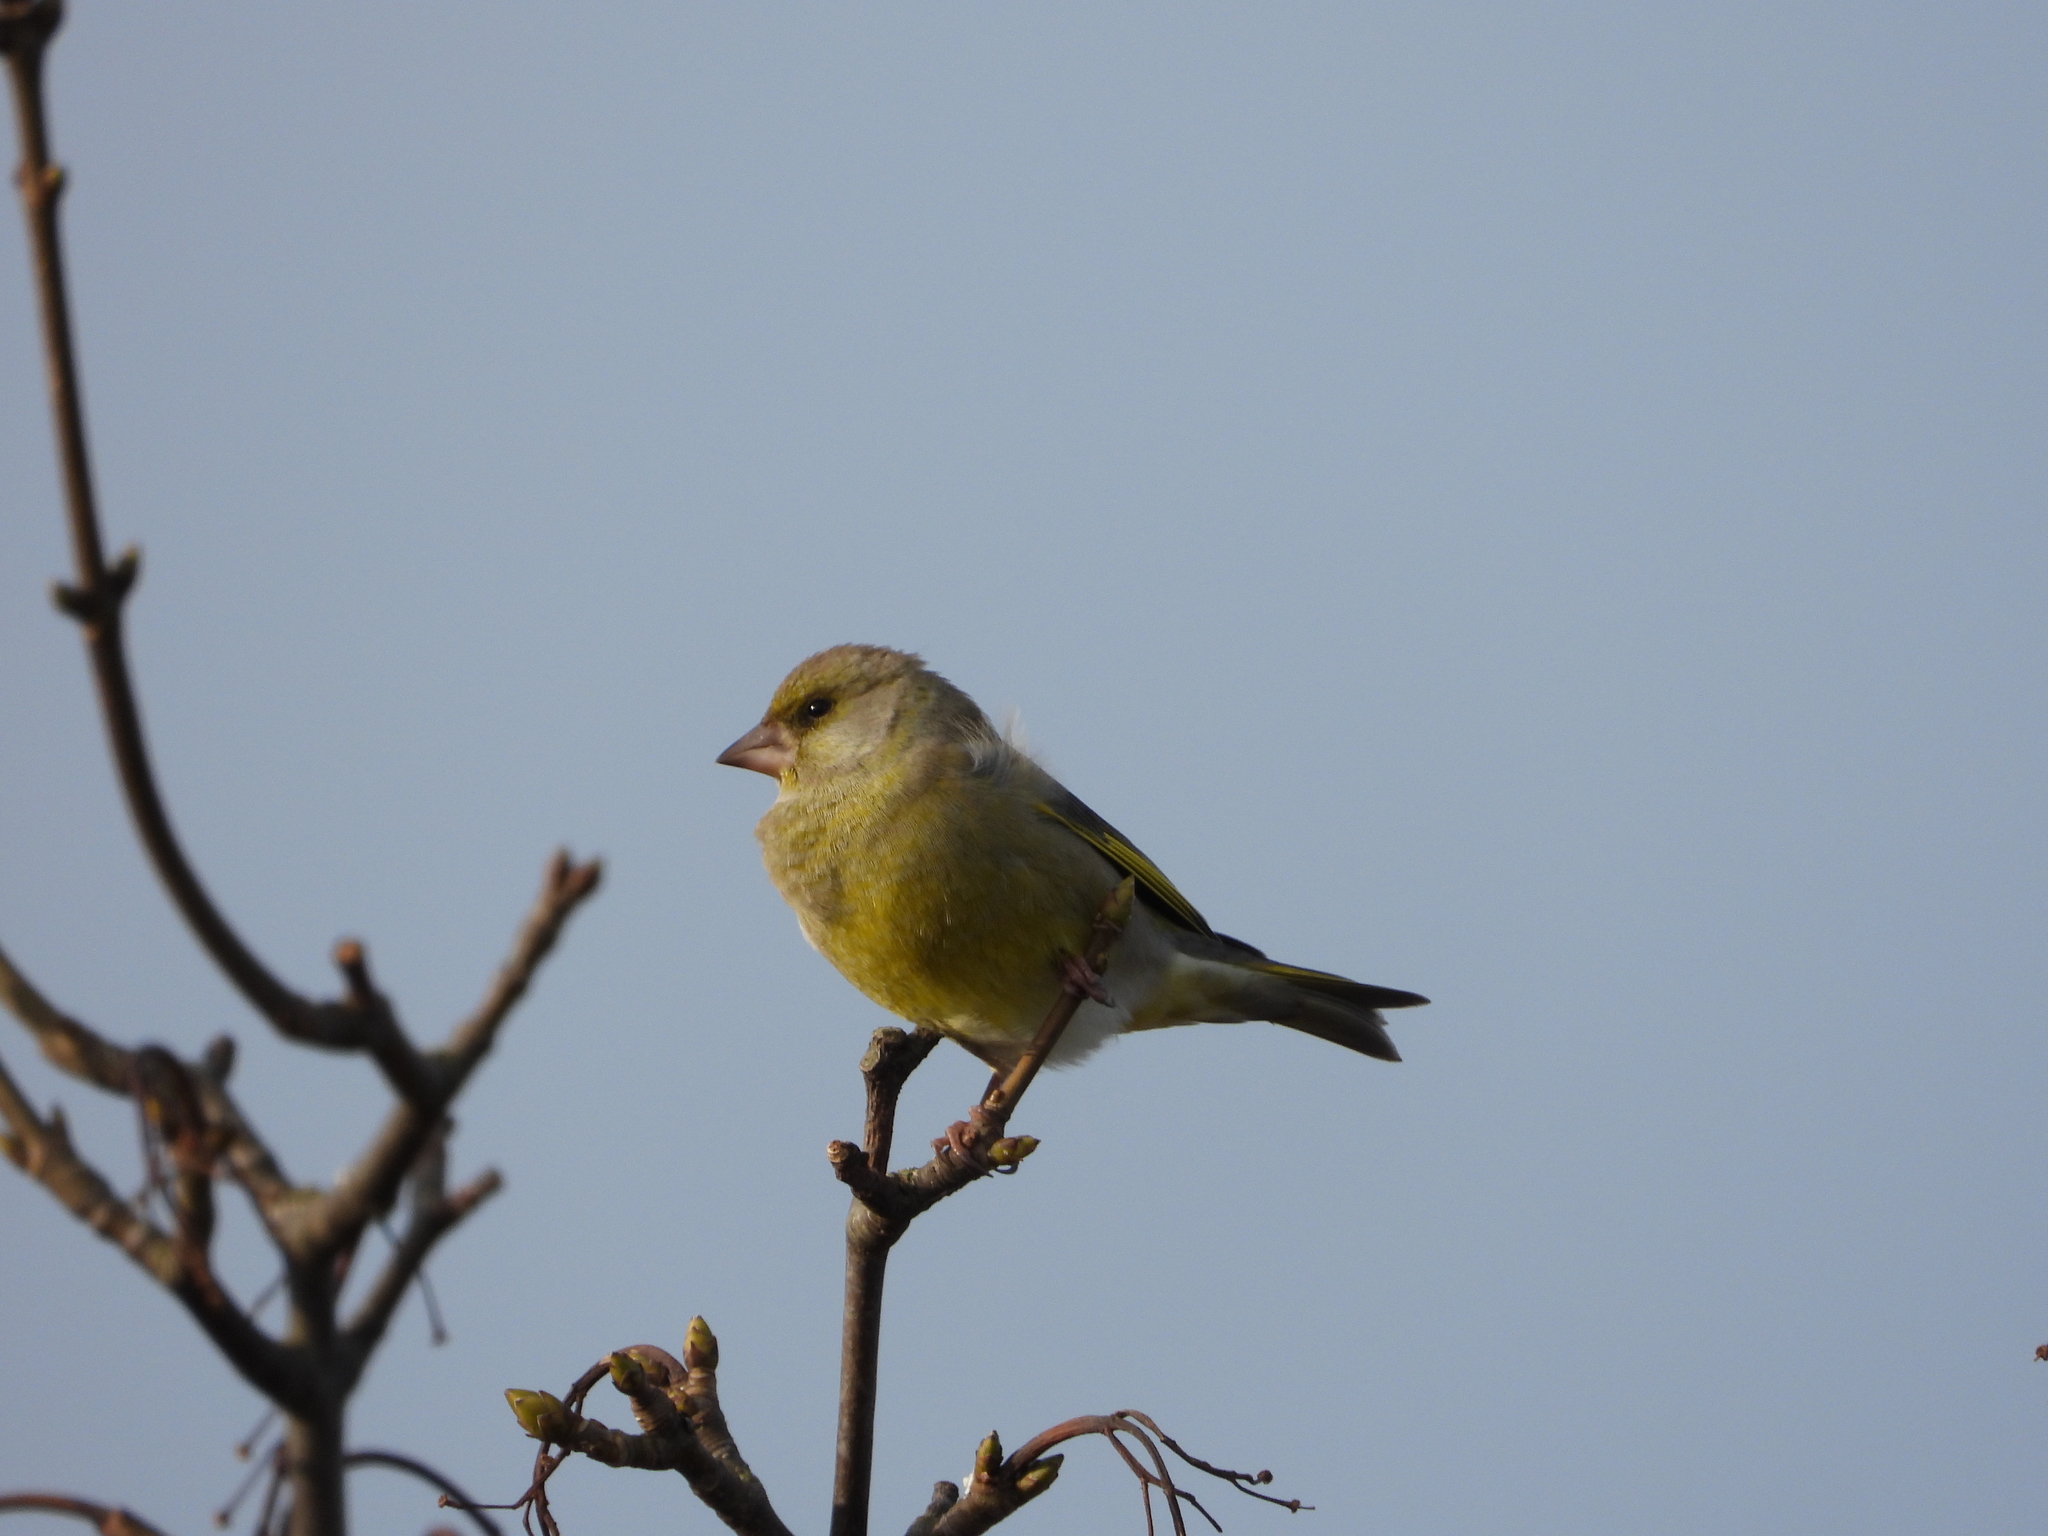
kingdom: Plantae
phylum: Tracheophyta
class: Liliopsida
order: Poales
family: Poaceae
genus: Chloris
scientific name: Chloris chloris
